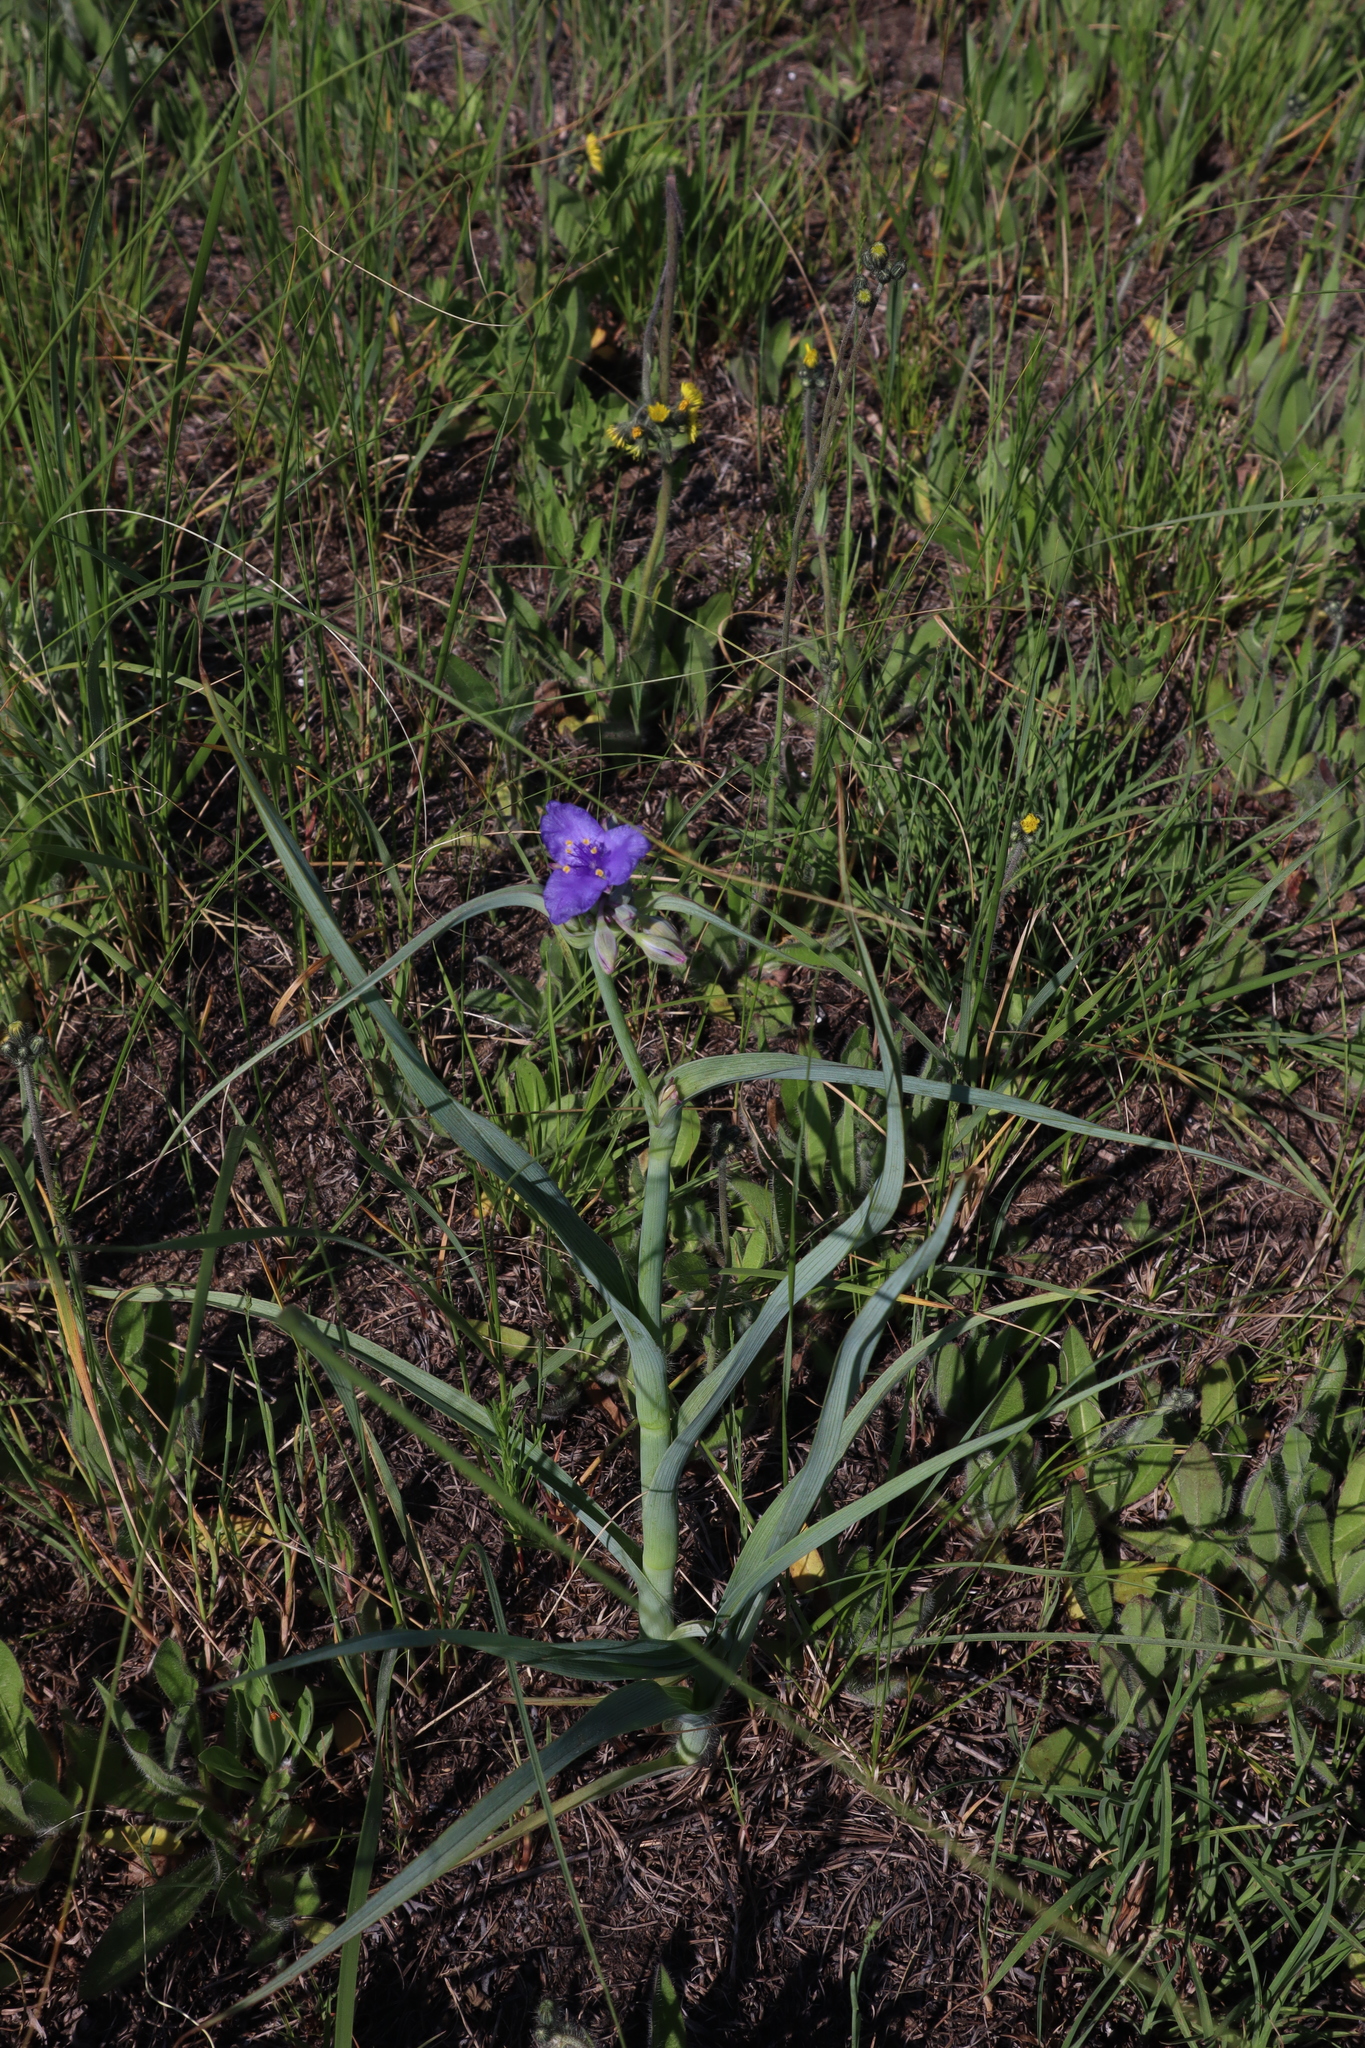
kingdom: Plantae
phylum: Tracheophyta
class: Liliopsida
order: Commelinales
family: Commelinaceae
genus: Tradescantia
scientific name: Tradescantia ohiensis
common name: Ohio spiderwort
